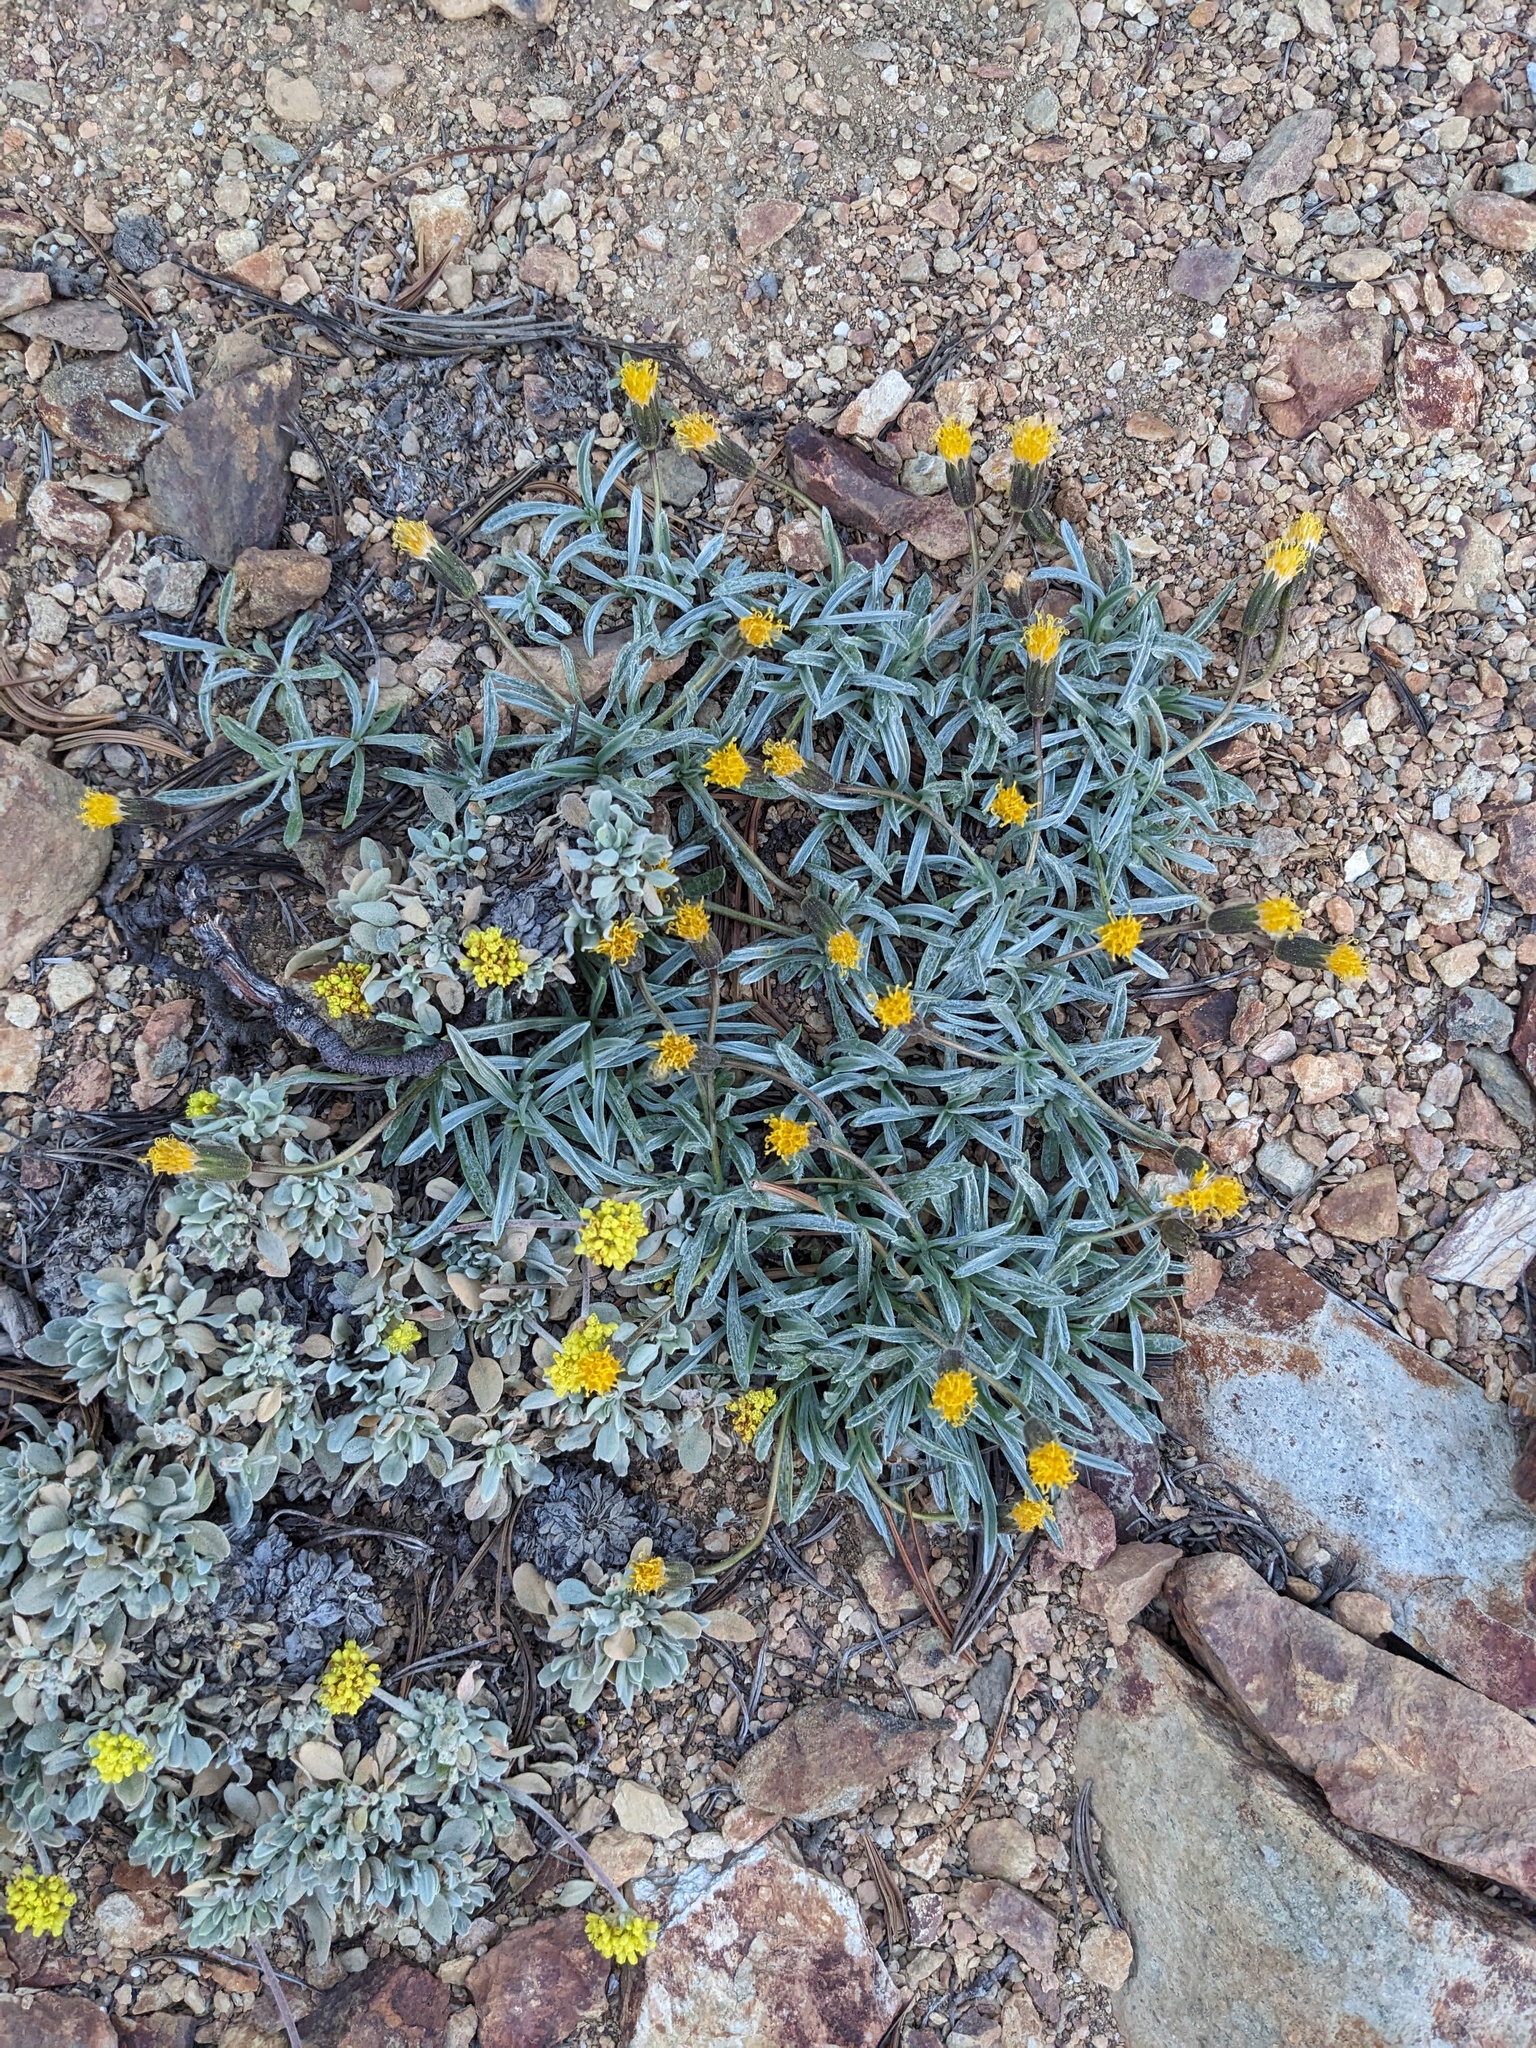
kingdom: Plantae
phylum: Tracheophyta
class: Magnoliopsida
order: Asterales
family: Asteraceae
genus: Raillardella
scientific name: Raillardella argentea
